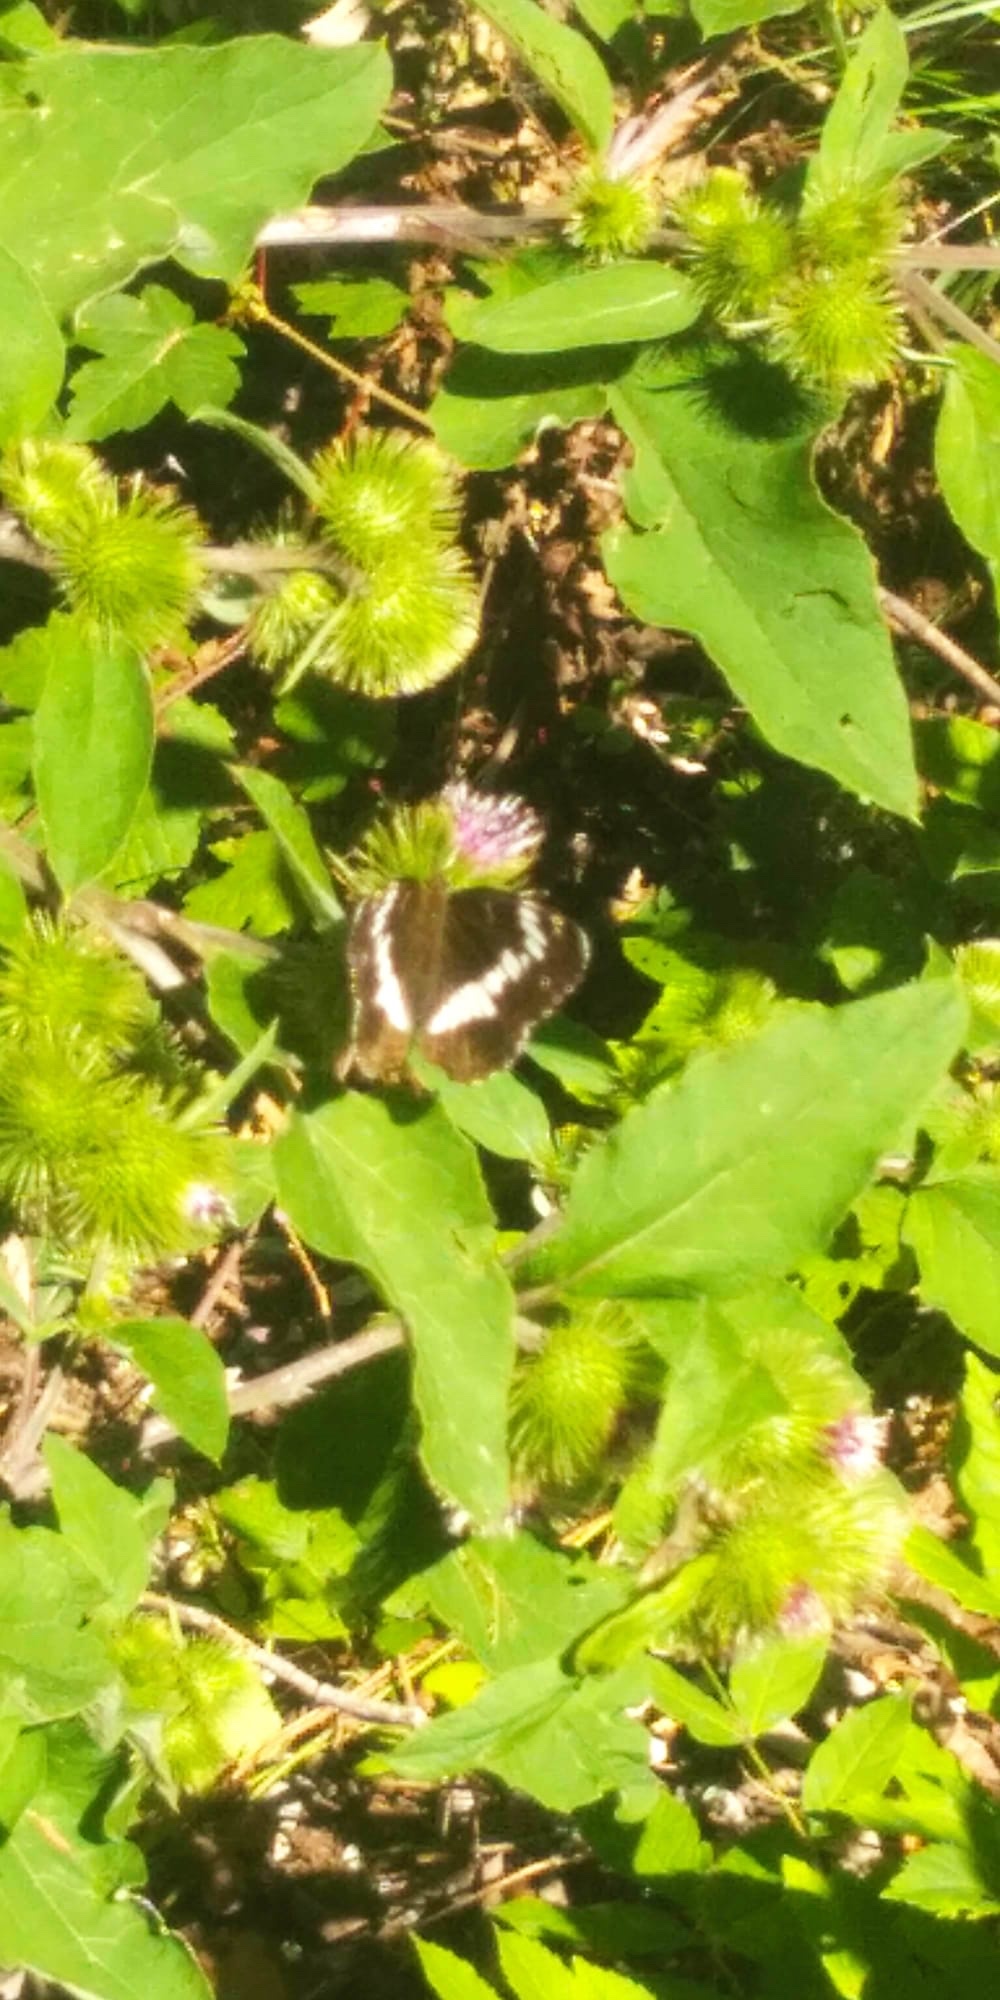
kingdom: Animalia
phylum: Arthropoda
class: Insecta
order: Lepidoptera
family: Nymphalidae
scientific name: Nymphalidae
